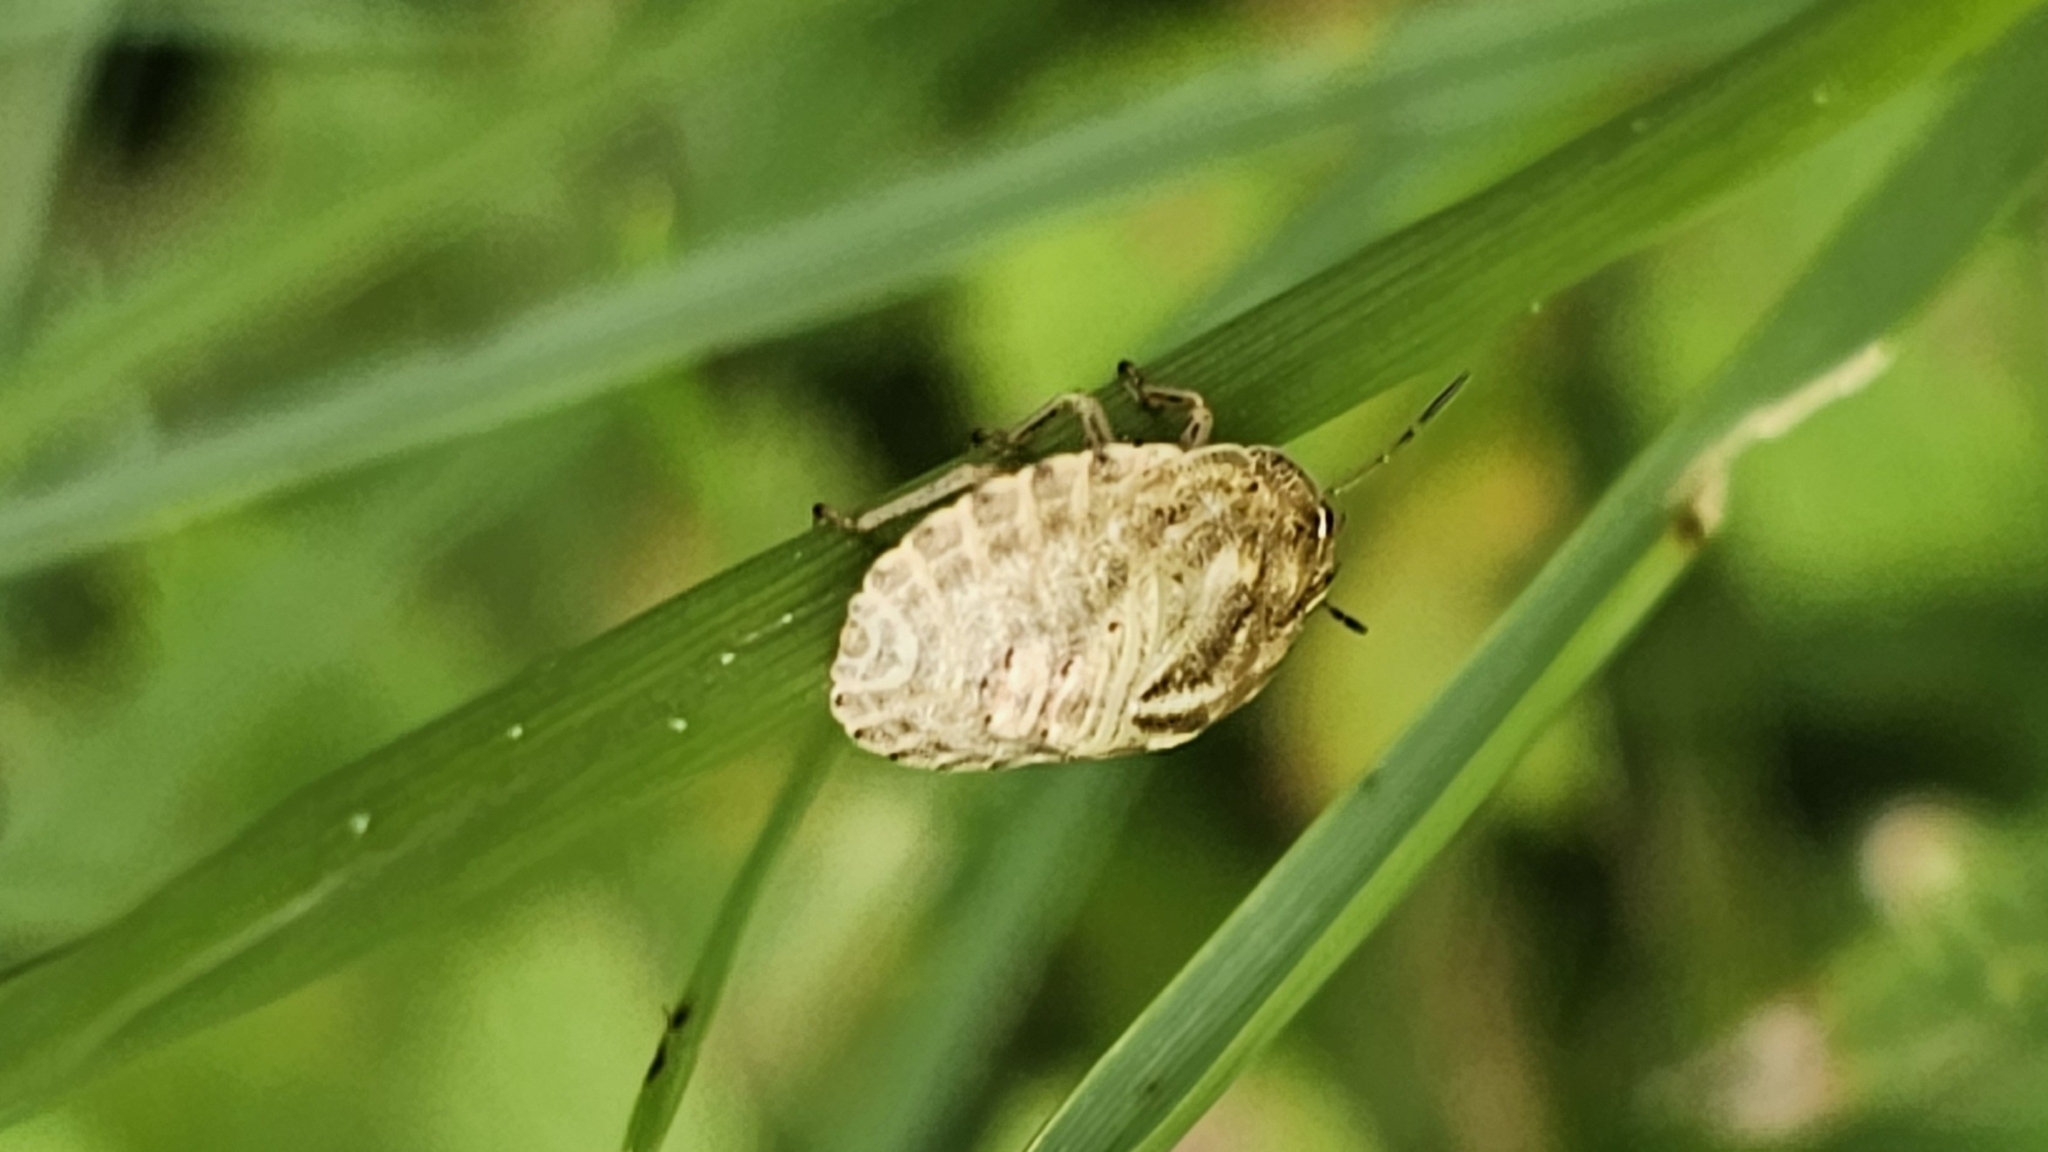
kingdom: Animalia
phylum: Arthropoda
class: Insecta
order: Hemiptera
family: Scutelleridae
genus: Eurygaster
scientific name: Eurygaster maura
